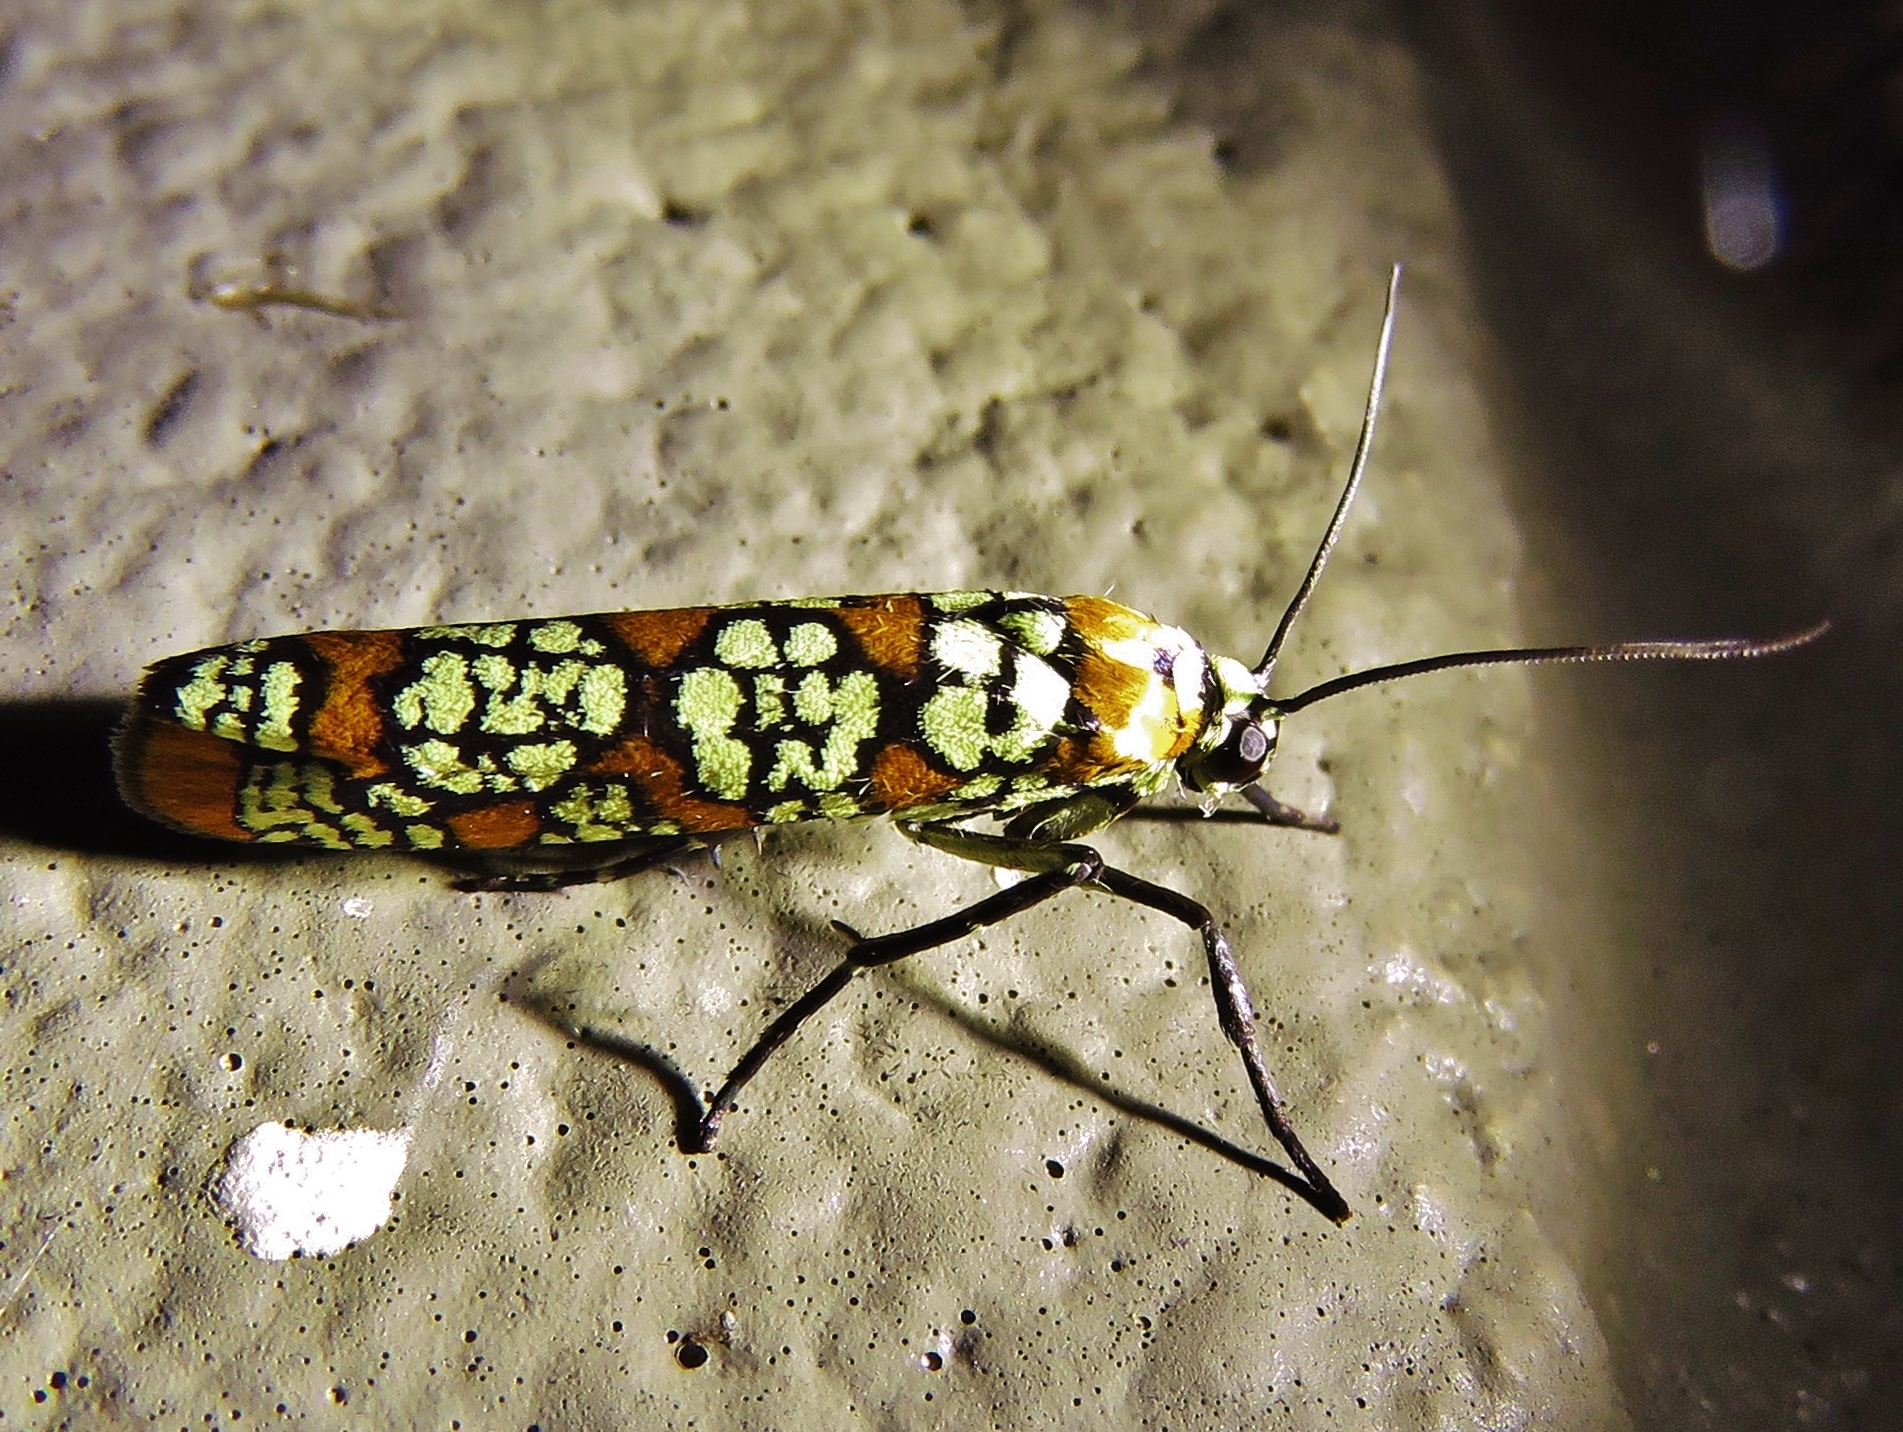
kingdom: Animalia
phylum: Arthropoda
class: Insecta
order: Lepidoptera
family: Attevidae
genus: Atteva
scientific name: Atteva punctella
